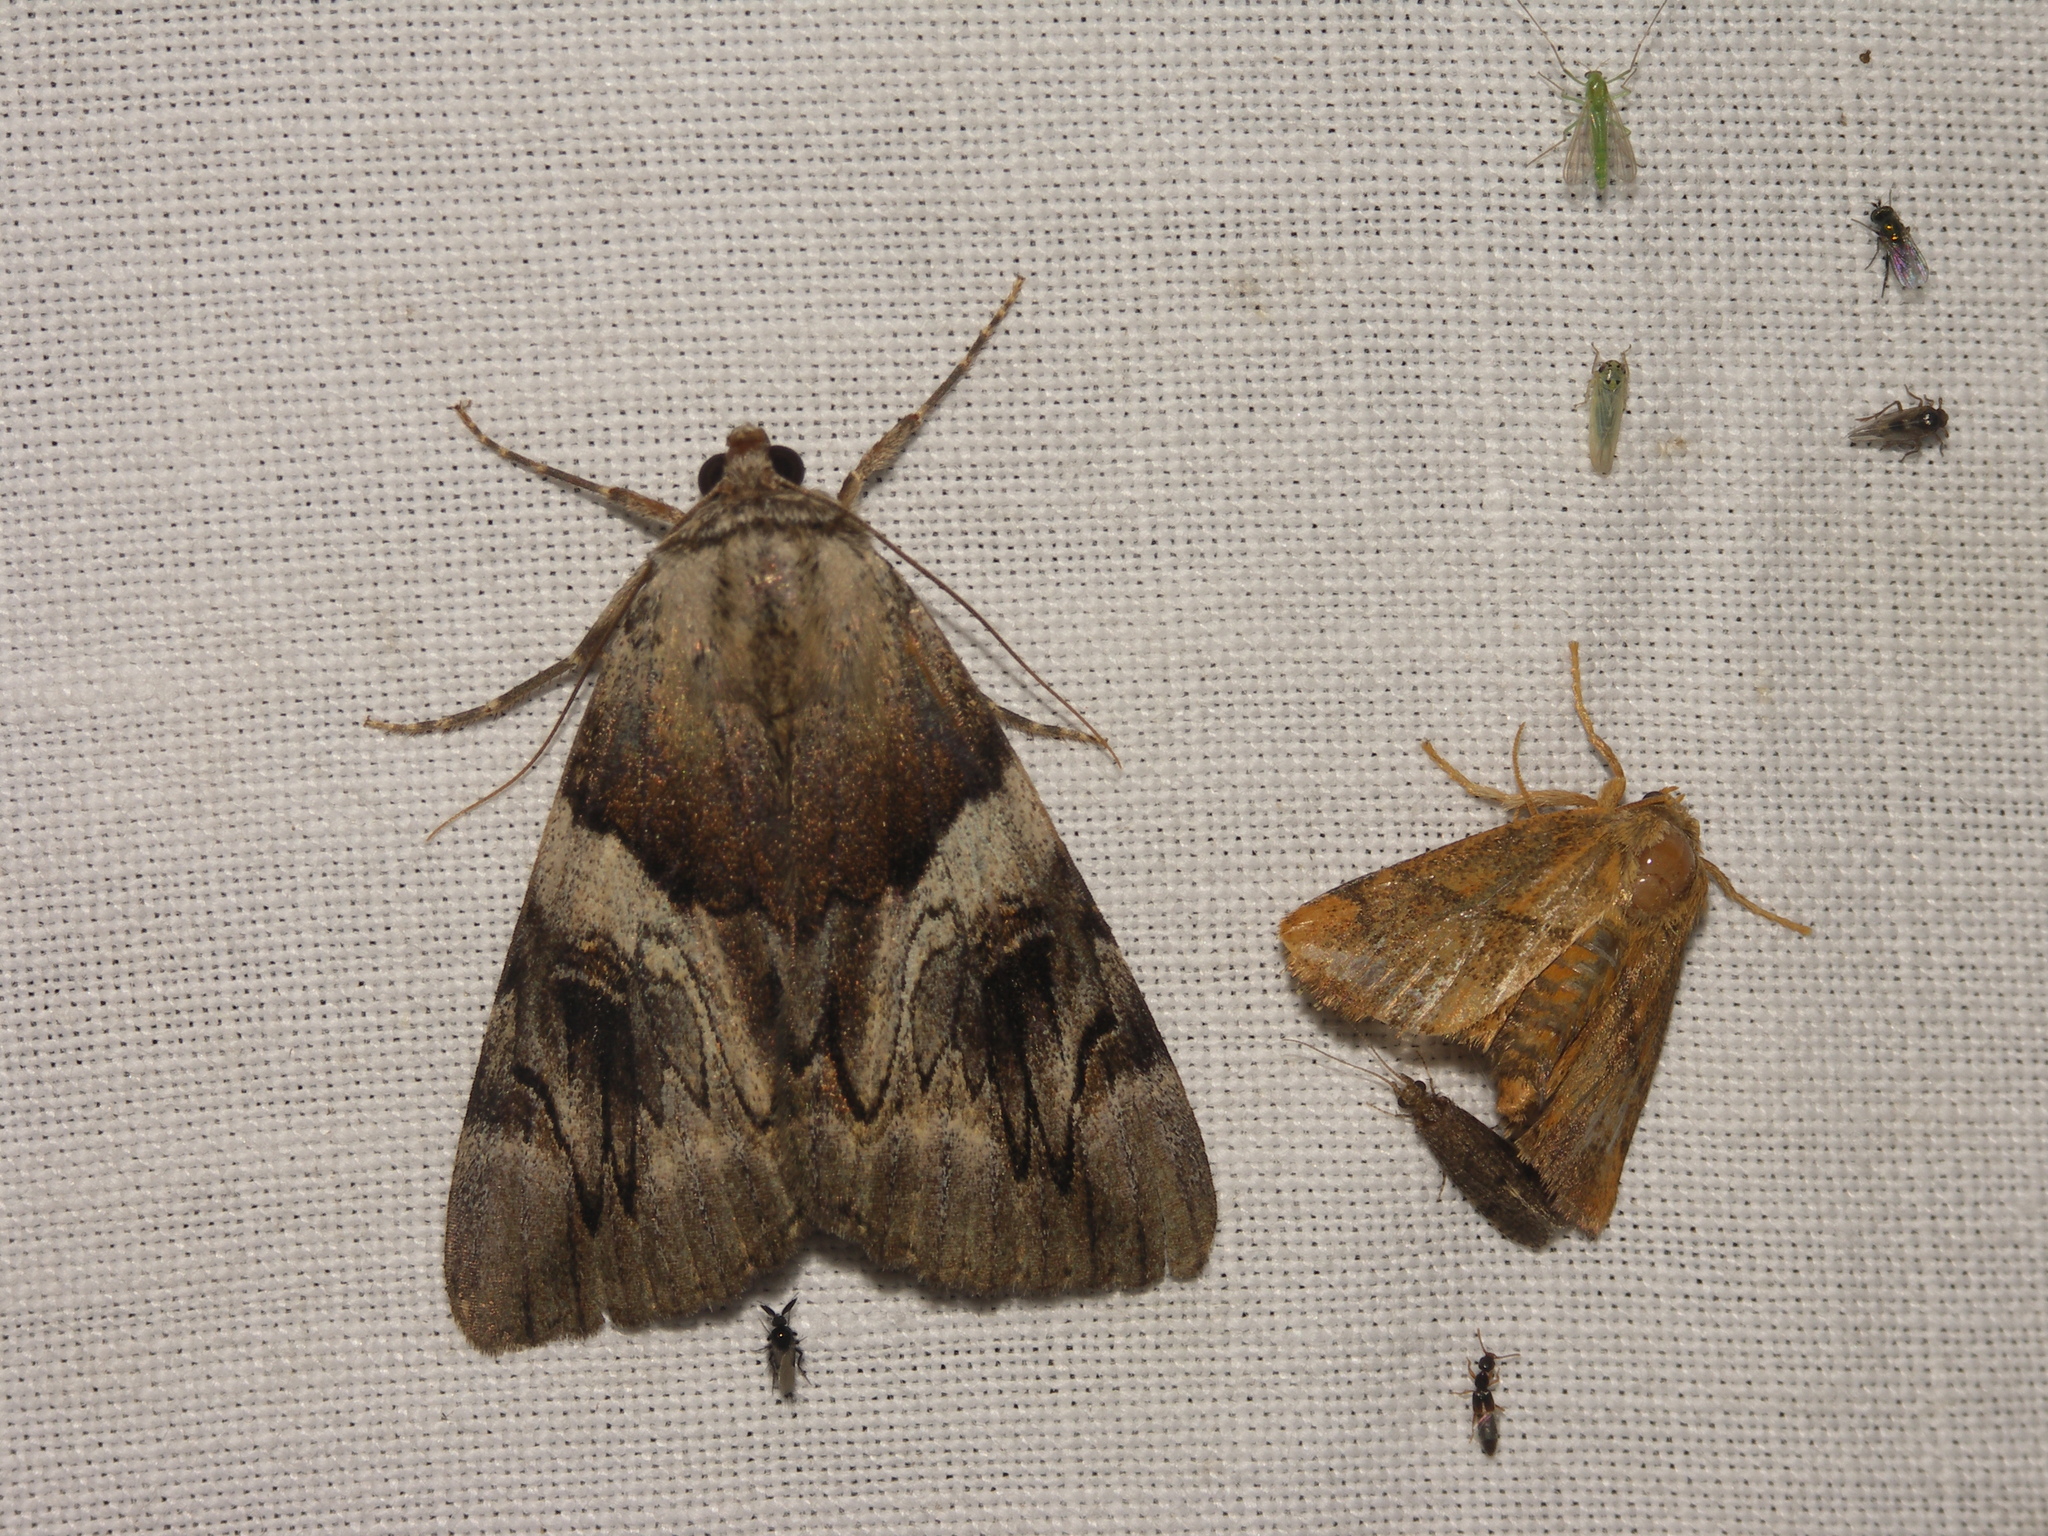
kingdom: Animalia
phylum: Arthropoda
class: Insecta
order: Lepidoptera
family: Erebidae
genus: Catocala
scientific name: Catocala fulminea
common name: Yellow bands underwing
